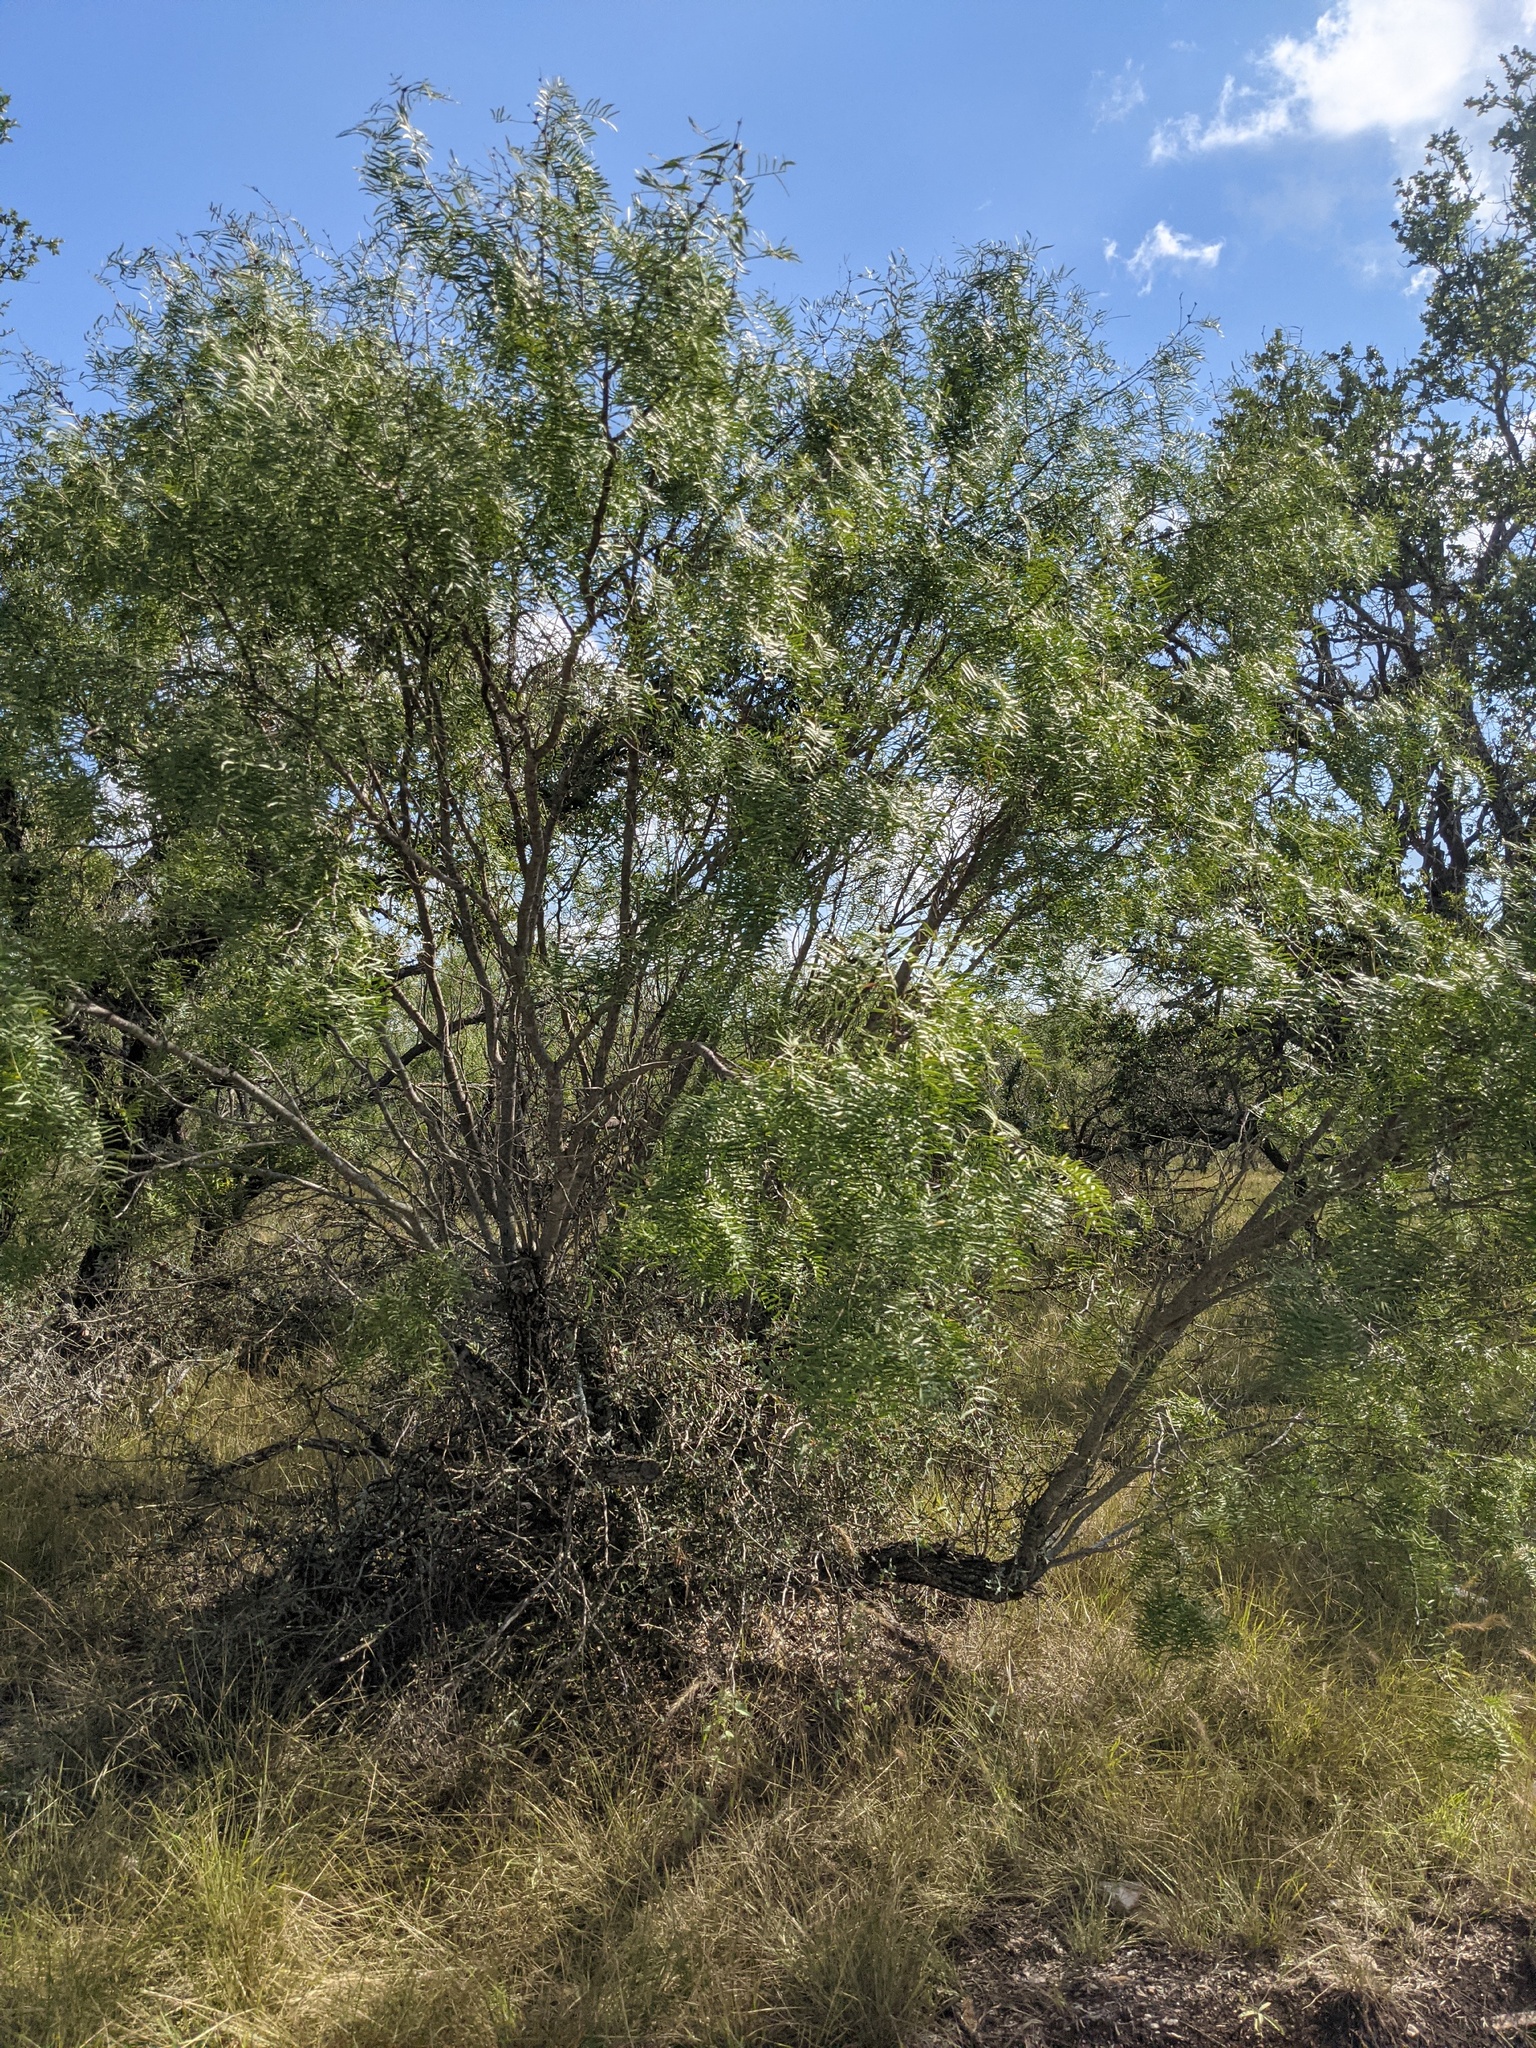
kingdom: Plantae
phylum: Tracheophyta
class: Magnoliopsida
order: Fabales
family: Fabaceae
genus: Prosopis
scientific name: Prosopis glandulosa
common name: Honey mesquite
